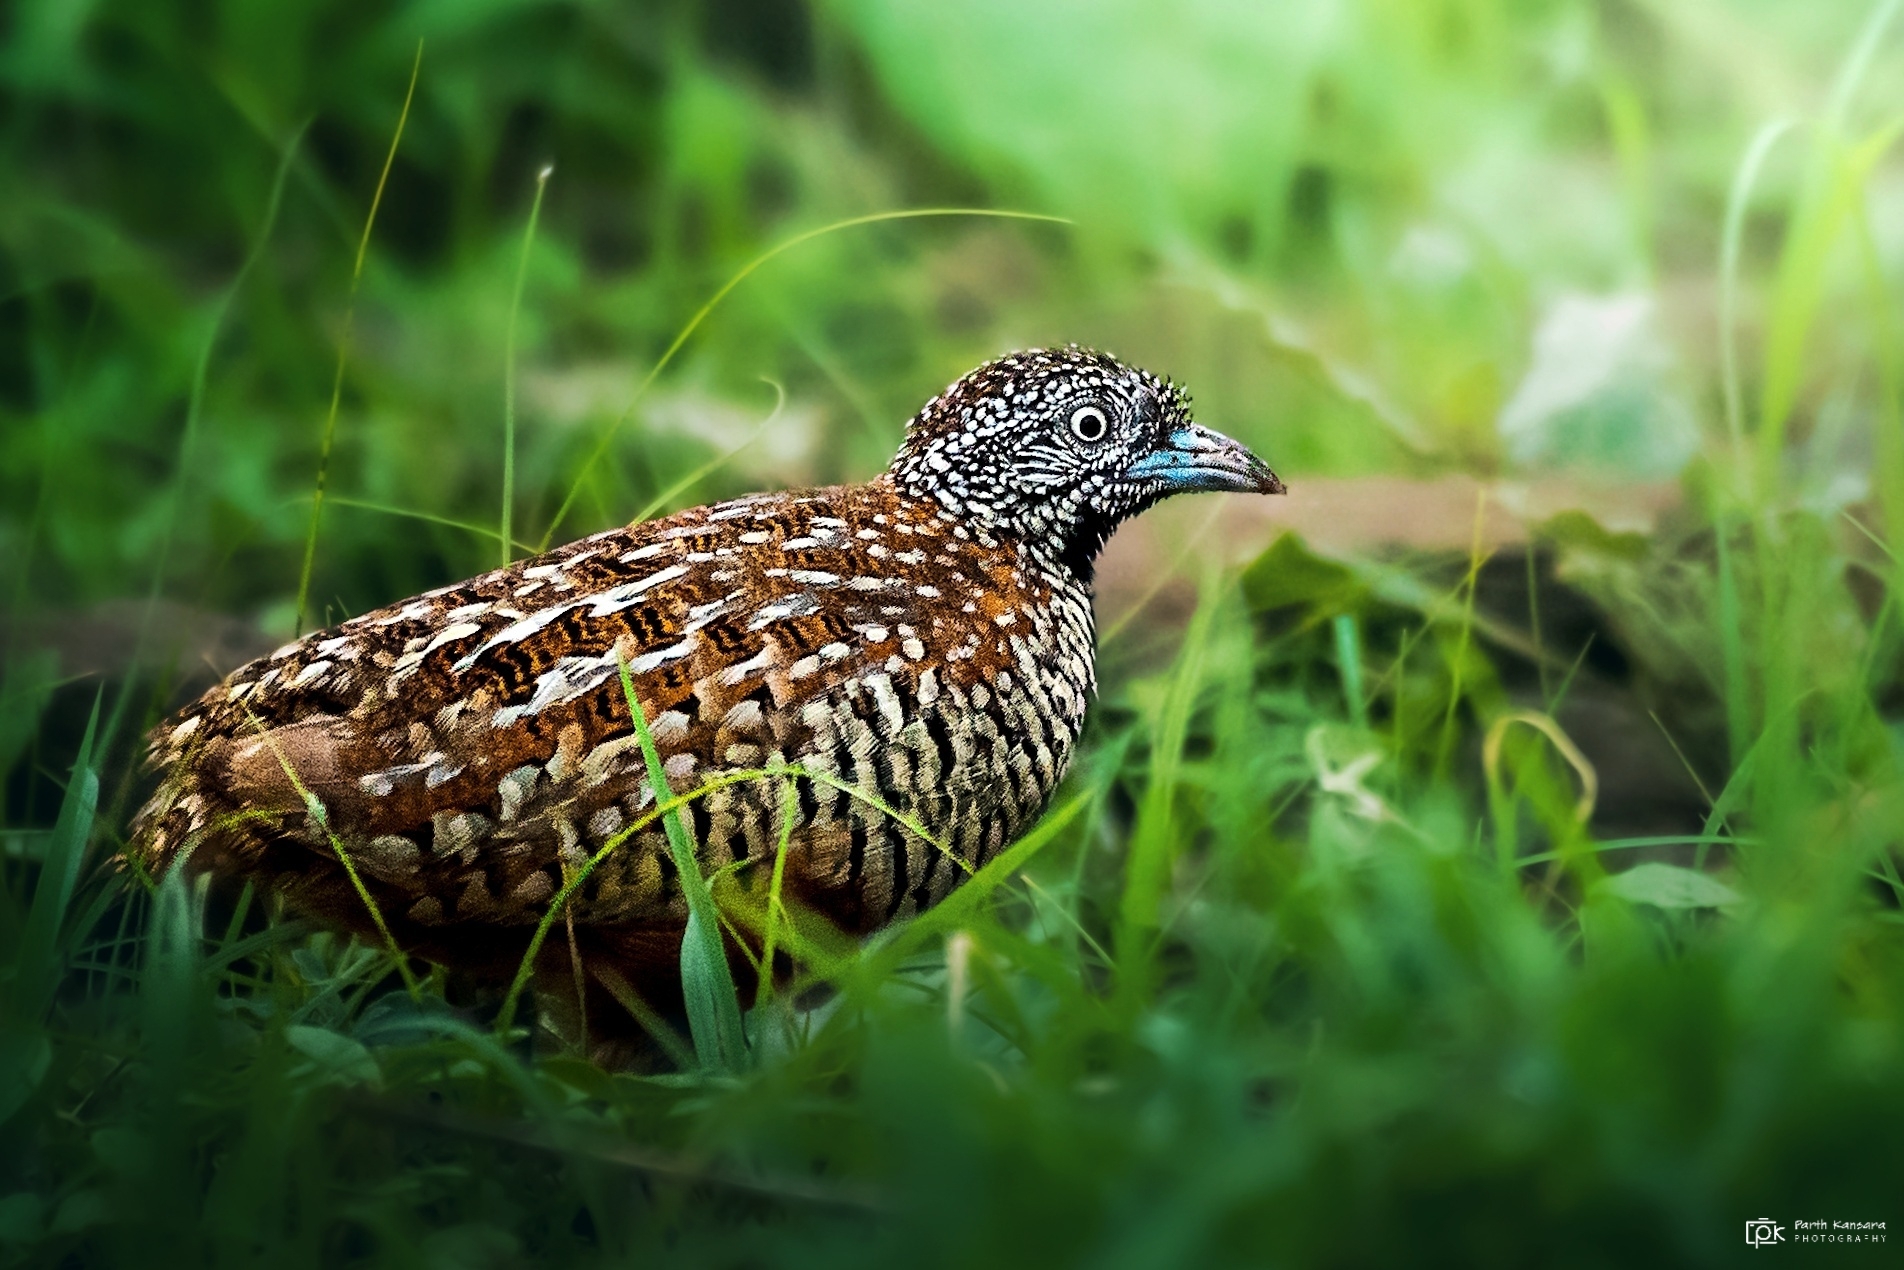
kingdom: Animalia
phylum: Chordata
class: Aves
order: Charadriiformes
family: Turnicidae
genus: Turnix
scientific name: Turnix suscitator
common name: Barred buttonquail
